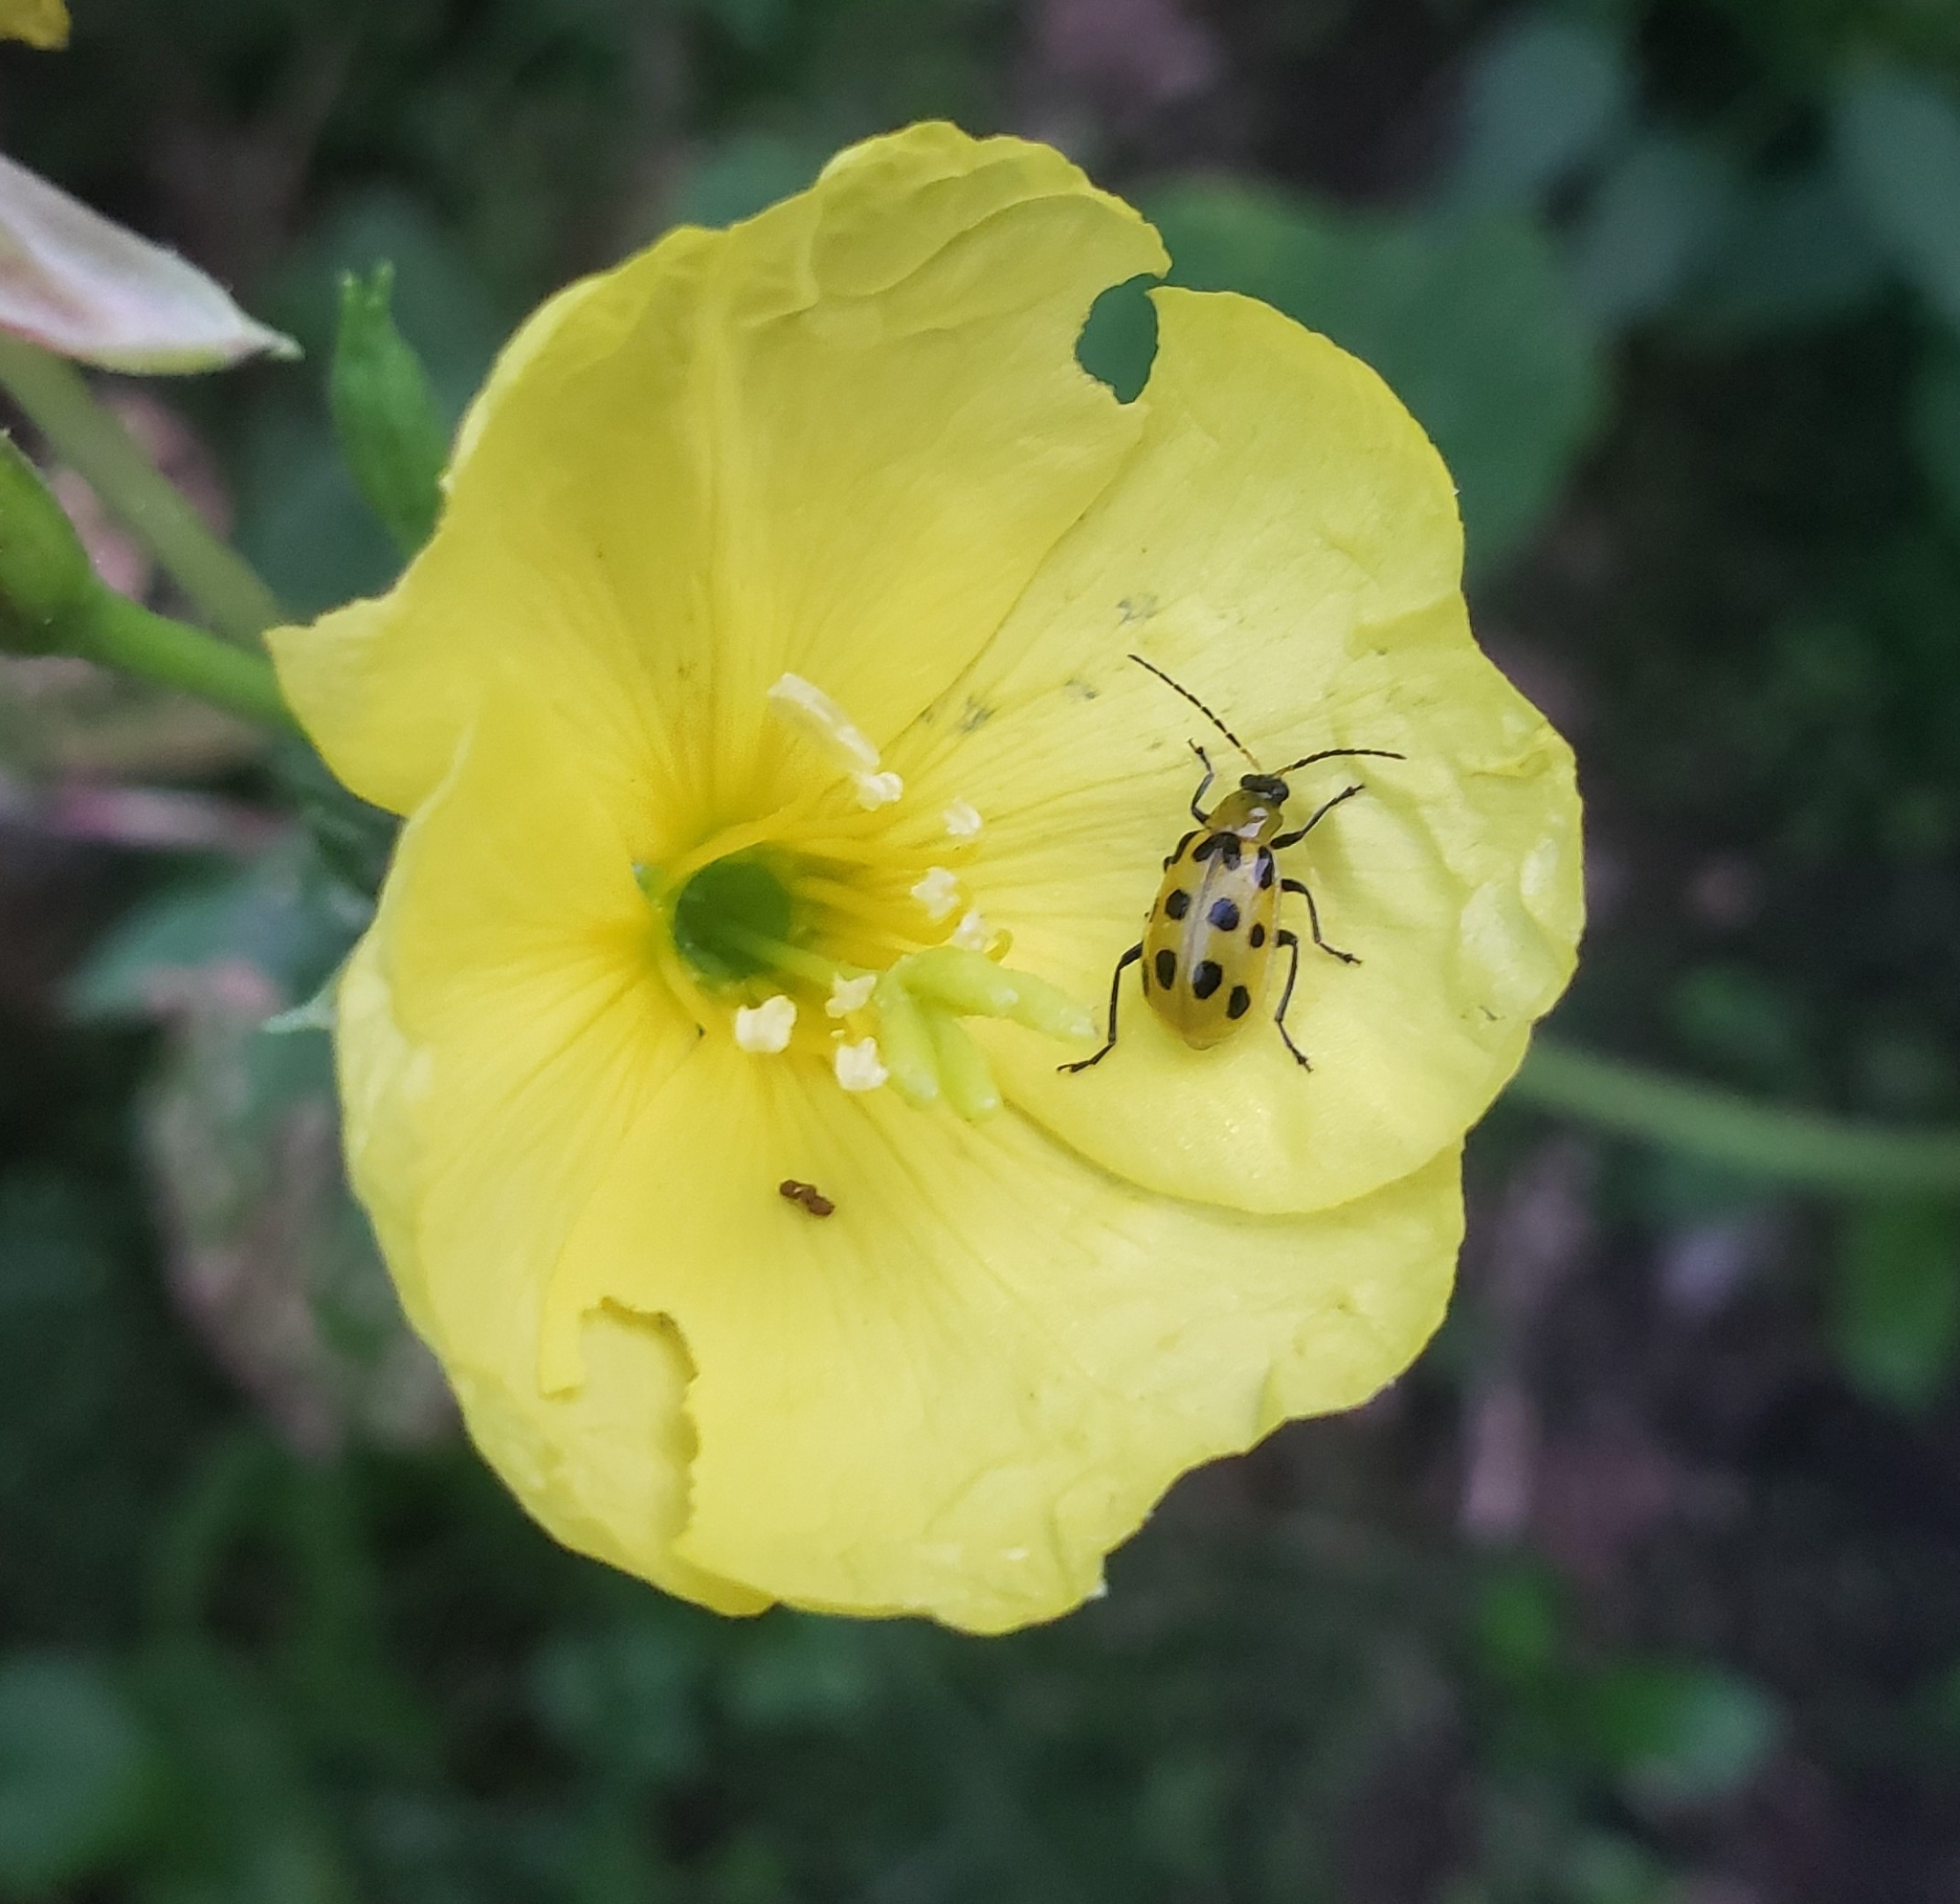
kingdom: Animalia
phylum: Arthropoda
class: Insecta
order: Coleoptera
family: Chrysomelidae
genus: Diabrotica
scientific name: Diabrotica undecimpunctata
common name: Spotted cucumber beetle
